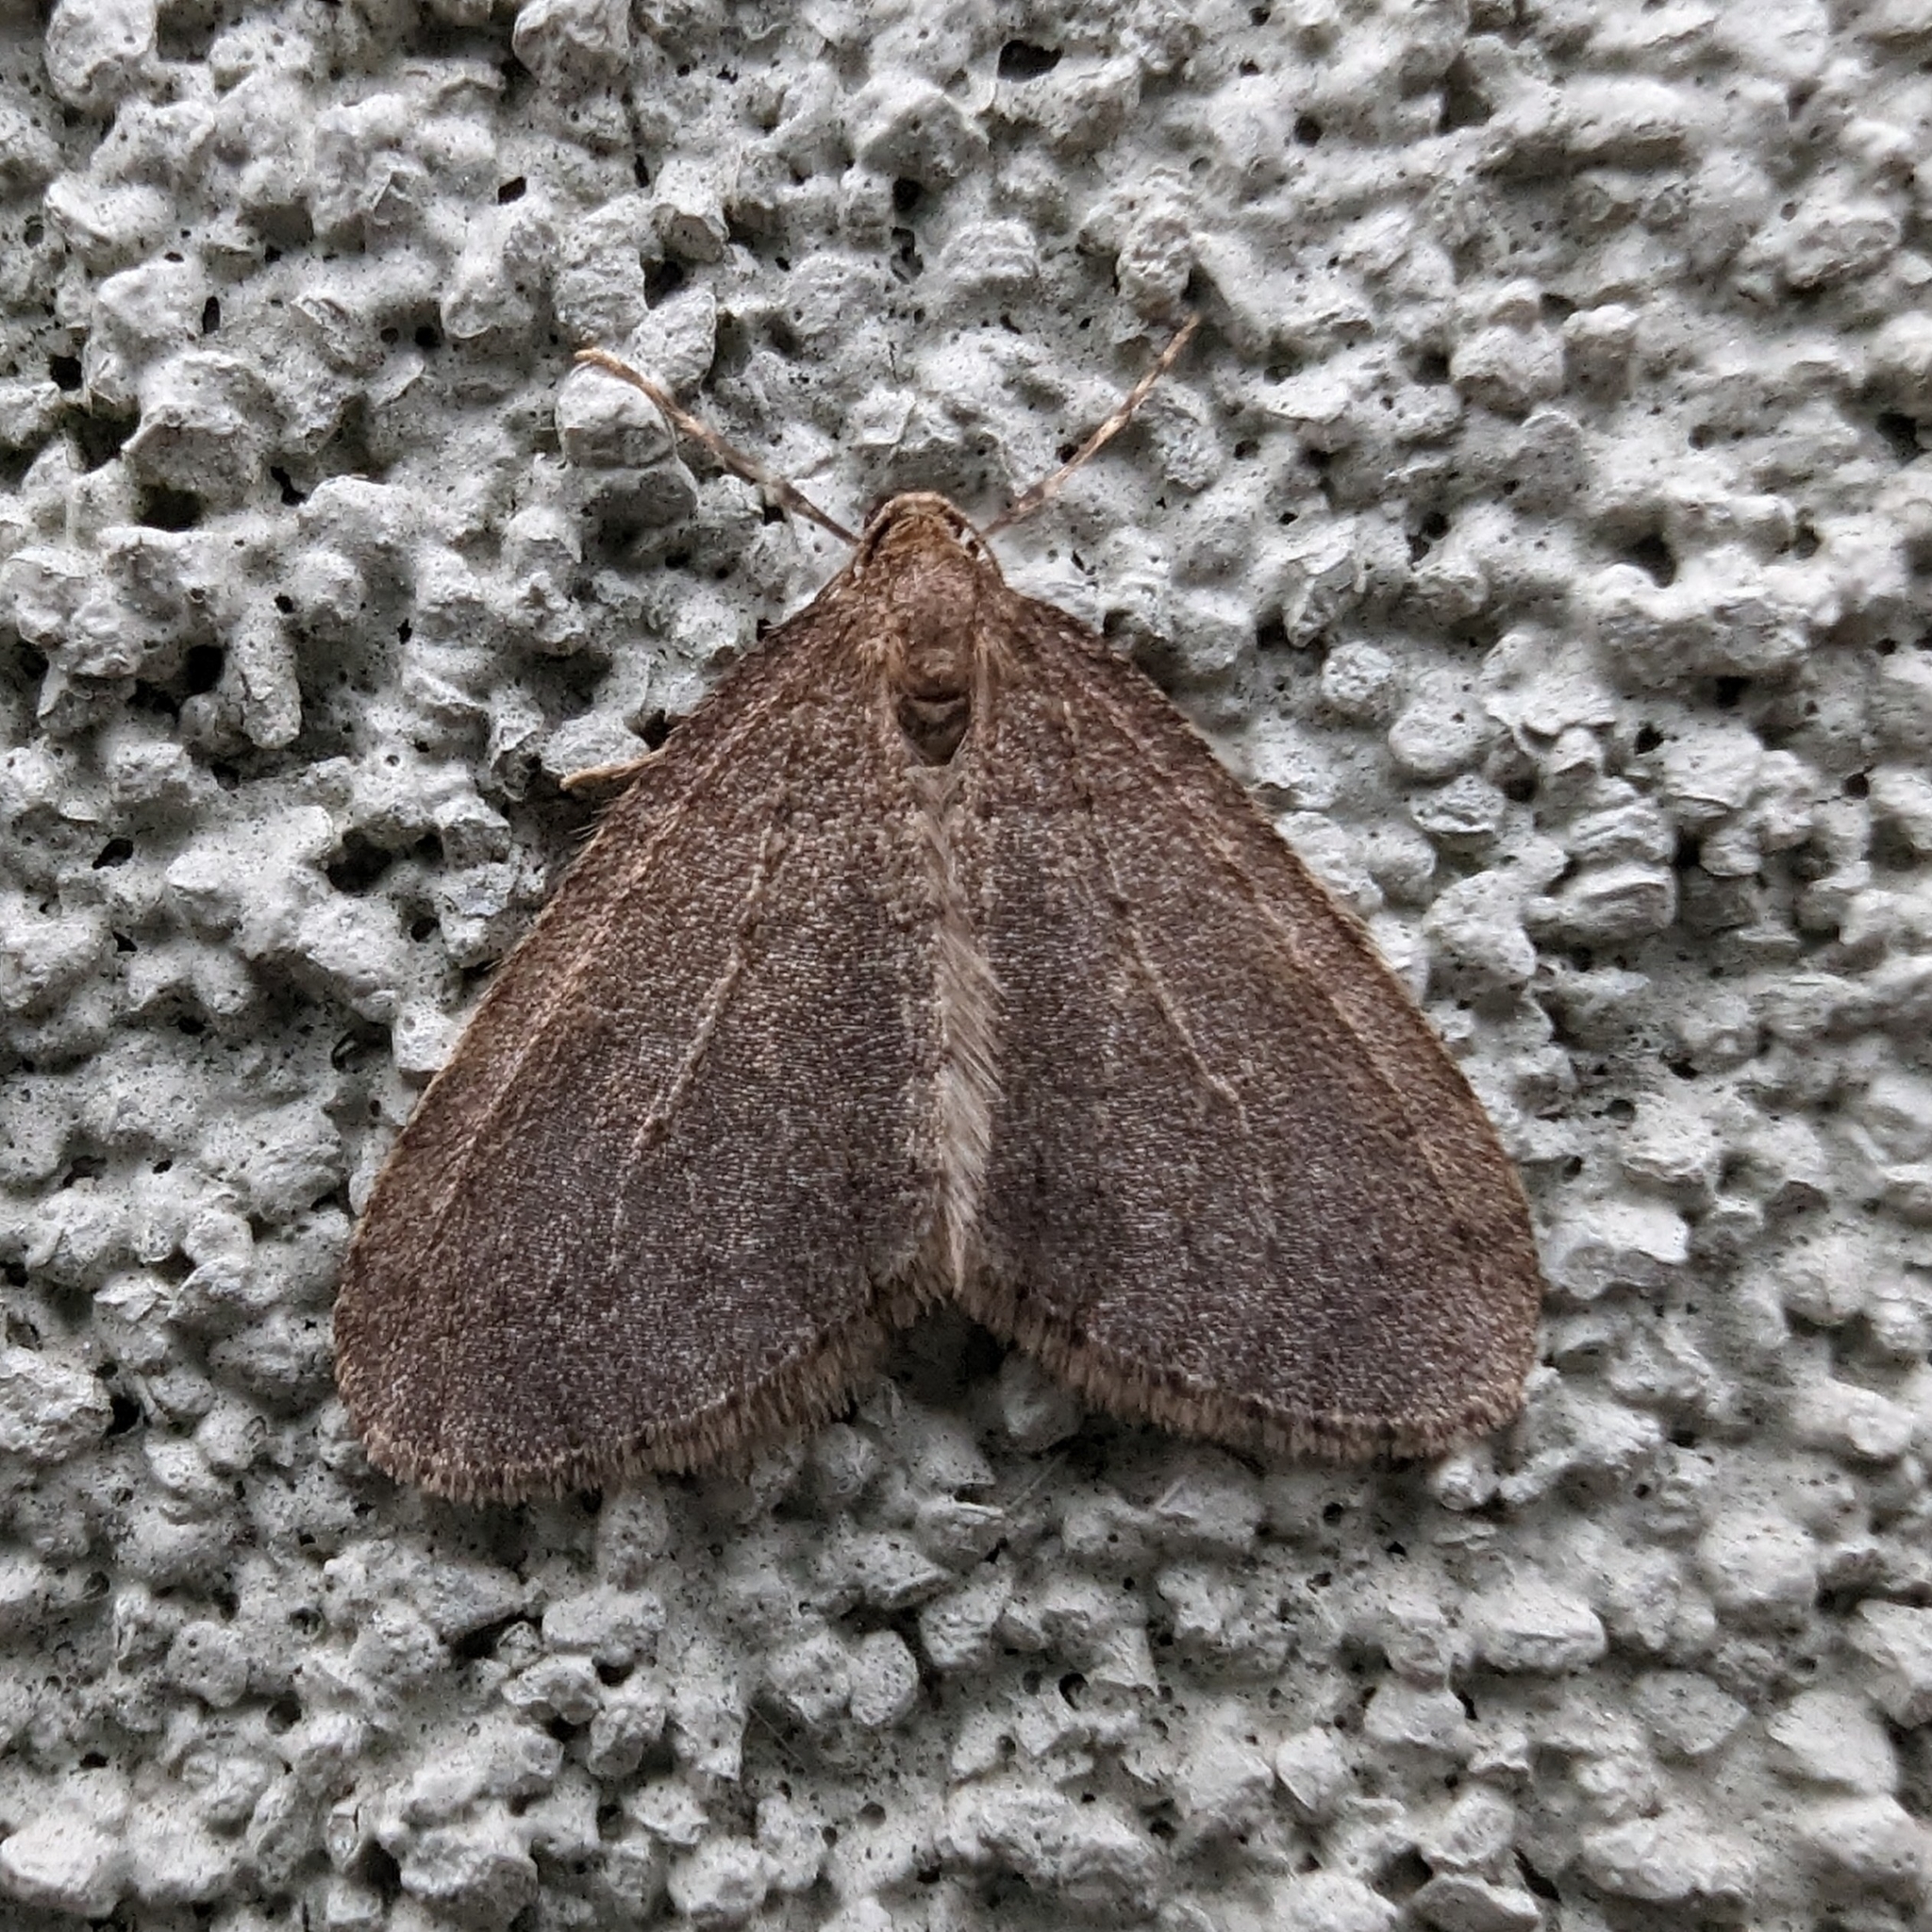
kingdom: Animalia
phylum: Arthropoda
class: Insecta
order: Lepidoptera
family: Geometridae
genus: Operophtera
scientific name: Operophtera
